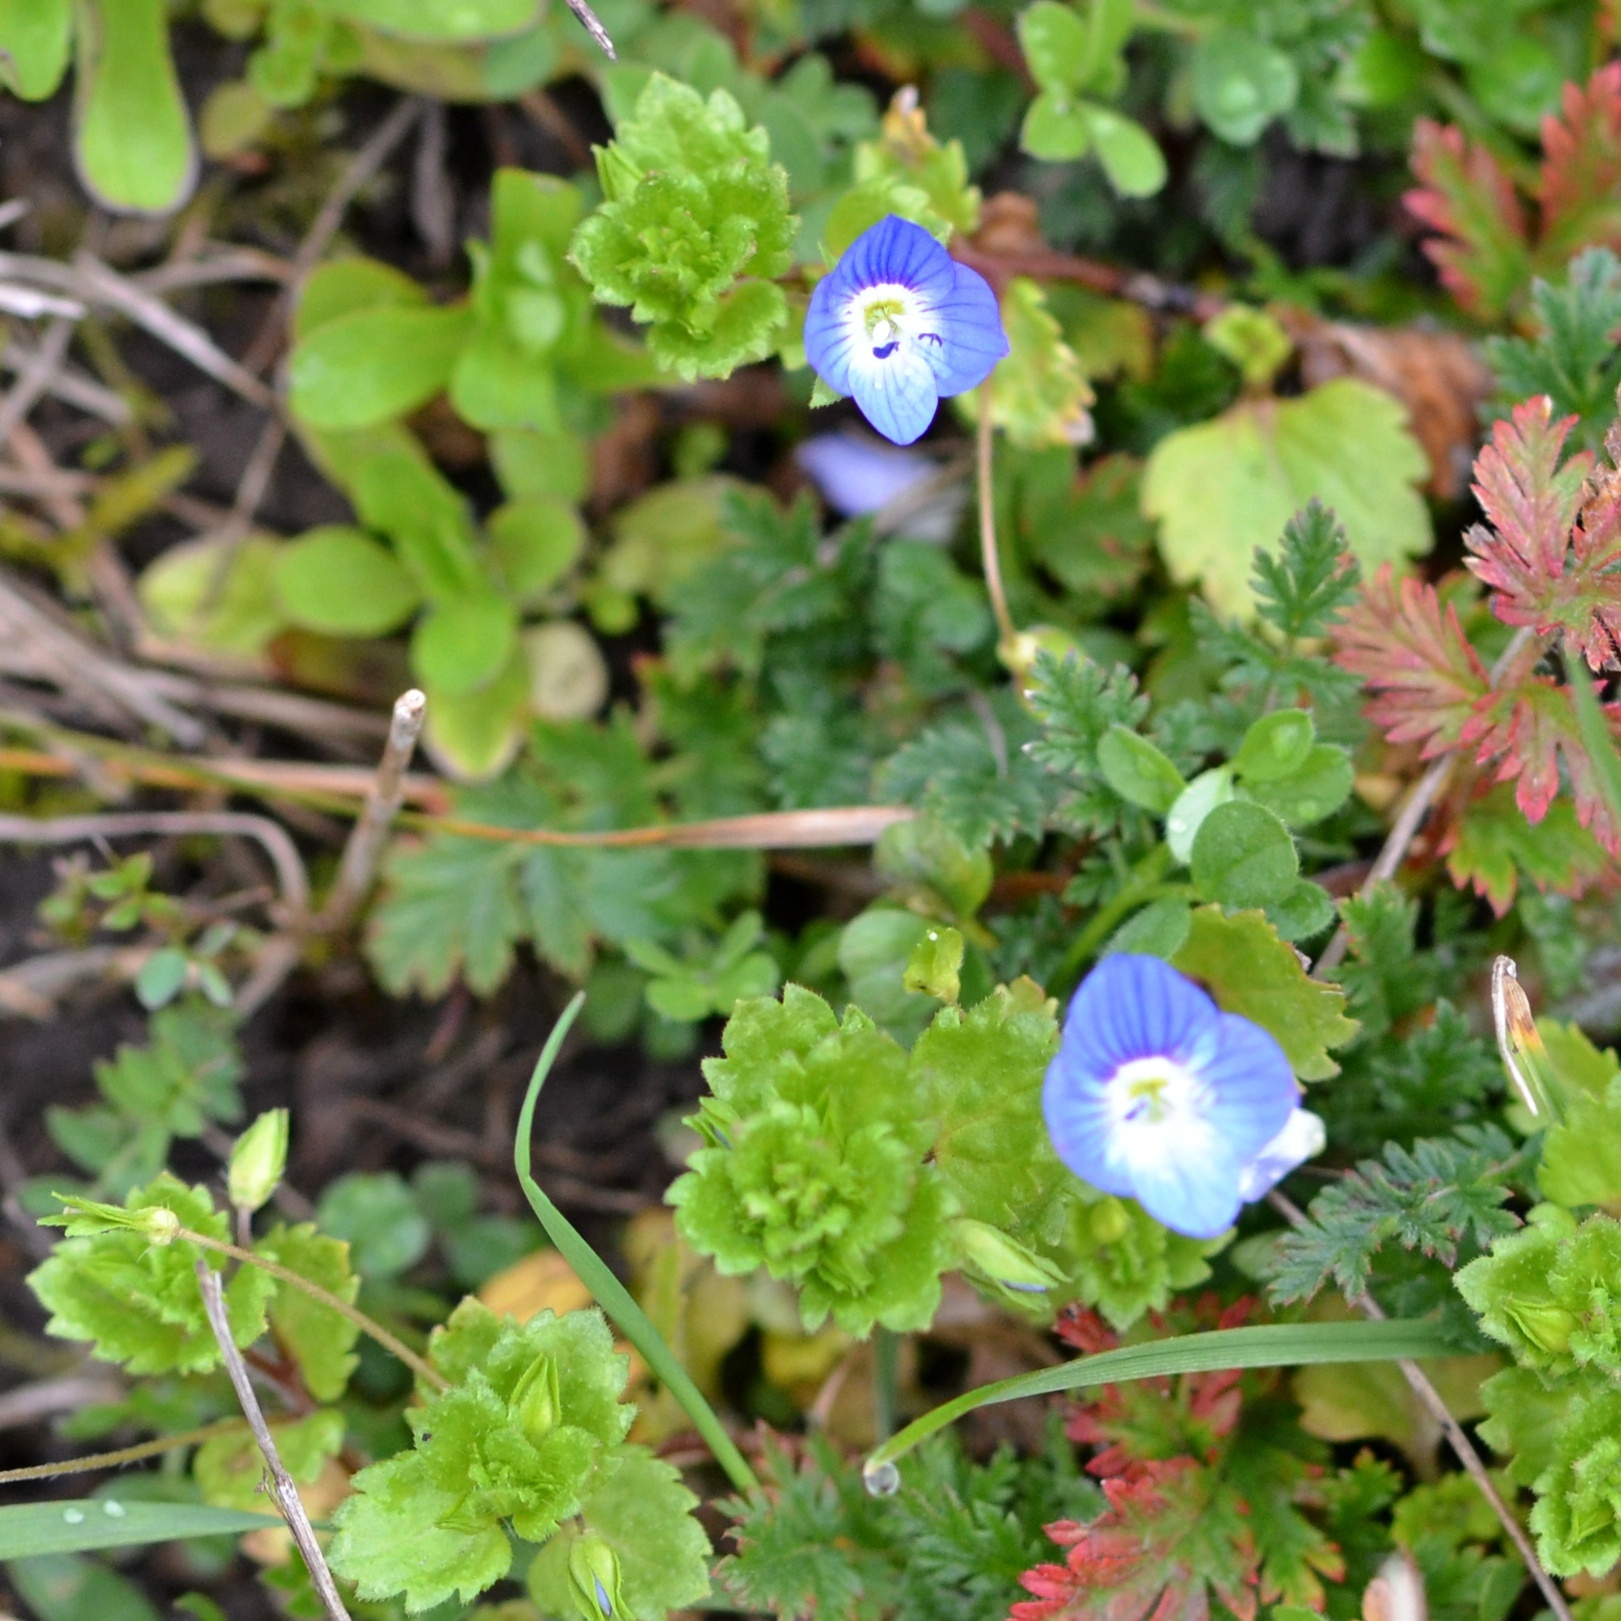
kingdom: Plantae
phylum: Tracheophyta
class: Magnoliopsida
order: Lamiales
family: Plantaginaceae
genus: Veronica
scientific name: Veronica persica
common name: Common field-speedwell
